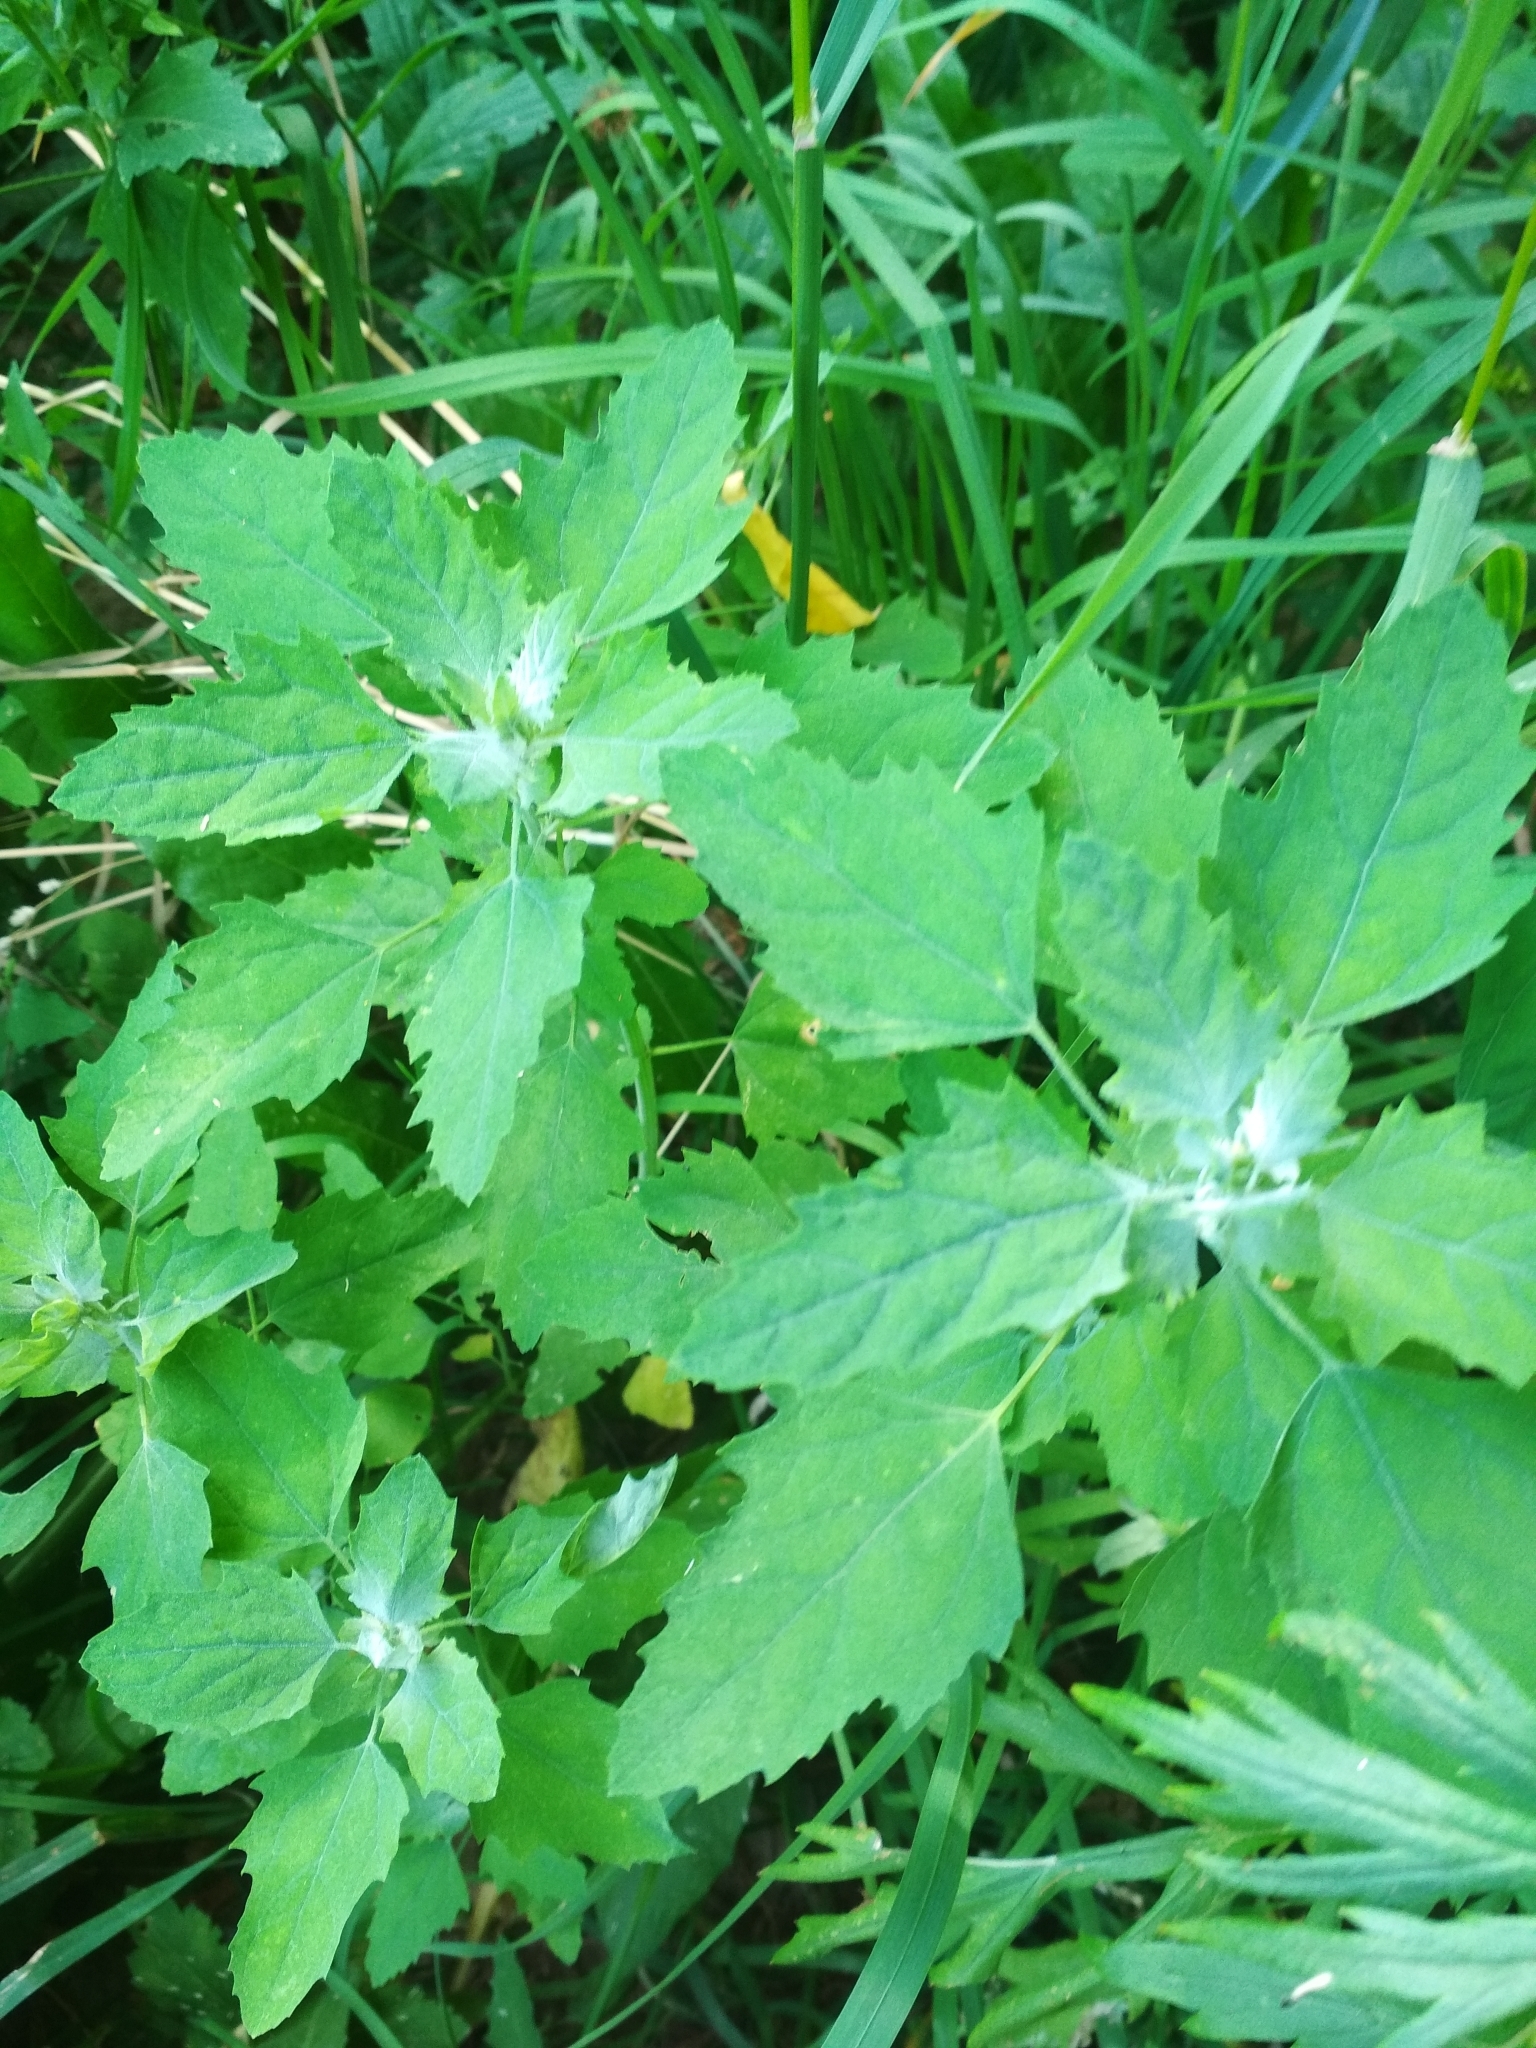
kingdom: Plantae
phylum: Tracheophyta
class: Magnoliopsida
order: Caryophyllales
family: Amaranthaceae
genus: Chenopodium
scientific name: Chenopodium album
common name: Fat-hen
